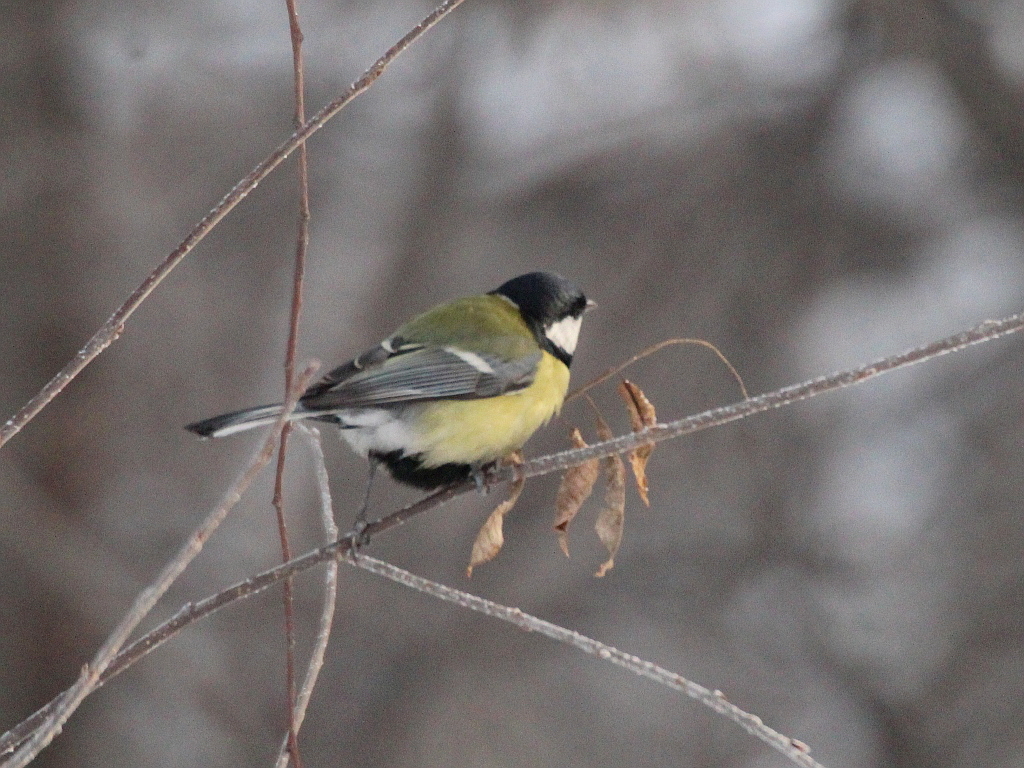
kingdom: Animalia
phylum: Chordata
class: Aves
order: Passeriformes
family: Paridae
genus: Parus
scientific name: Parus major
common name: Great tit
